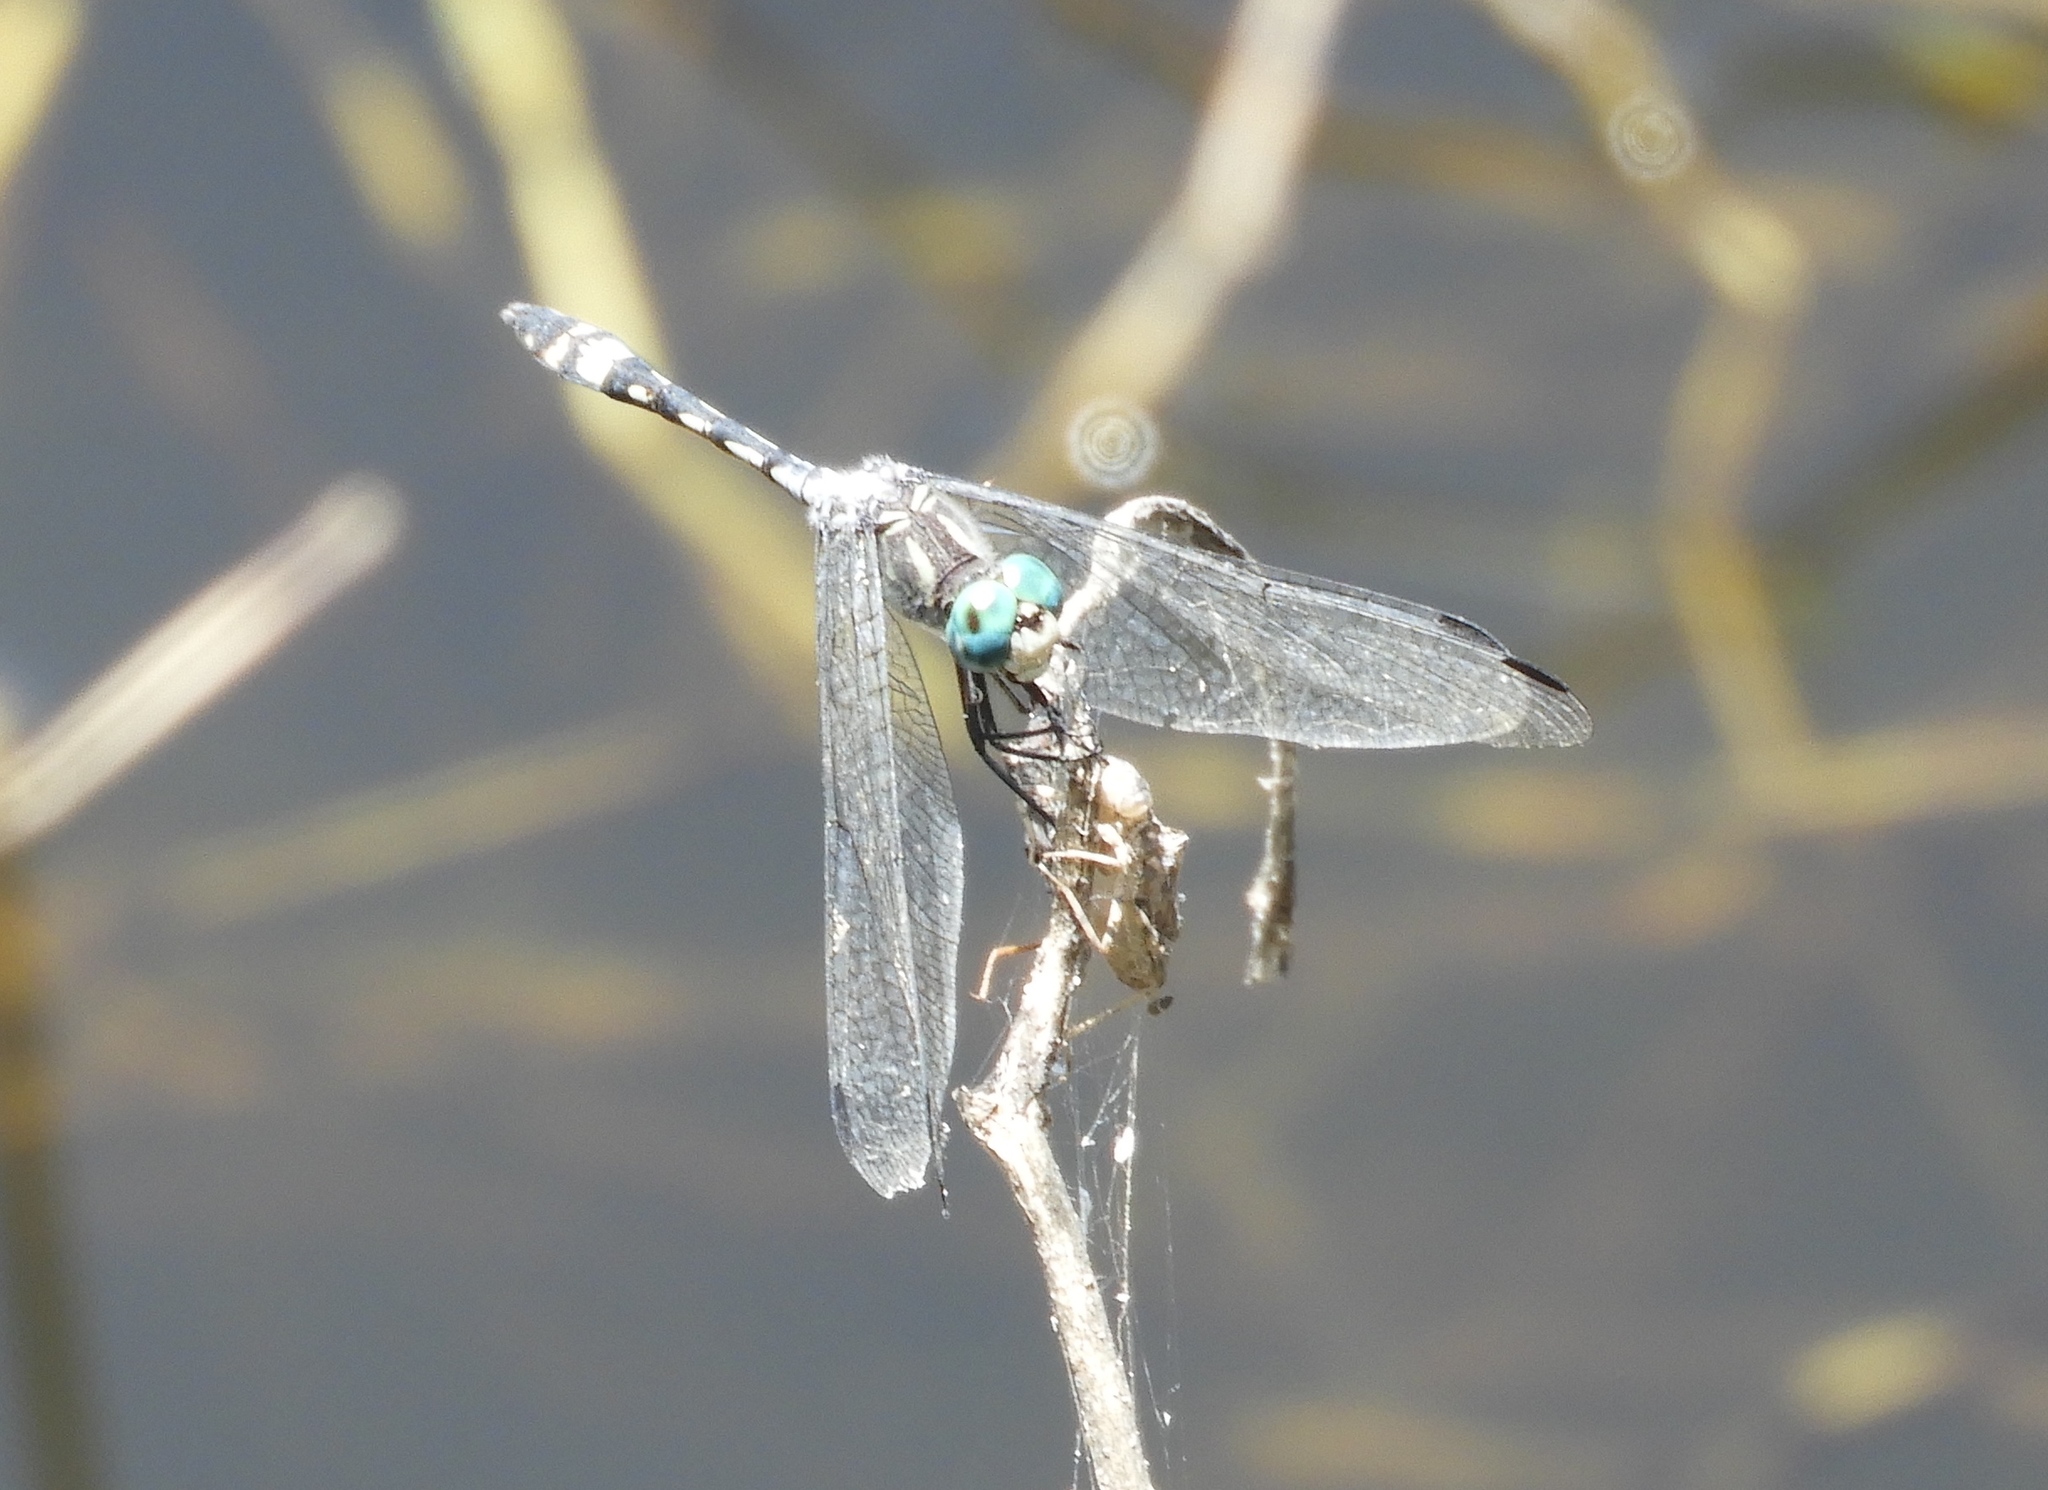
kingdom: Animalia
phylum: Arthropoda
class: Insecta
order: Odonata
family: Libellulidae
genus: Micrathyria
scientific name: Micrathyria hagenii
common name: Thornbush dasher
